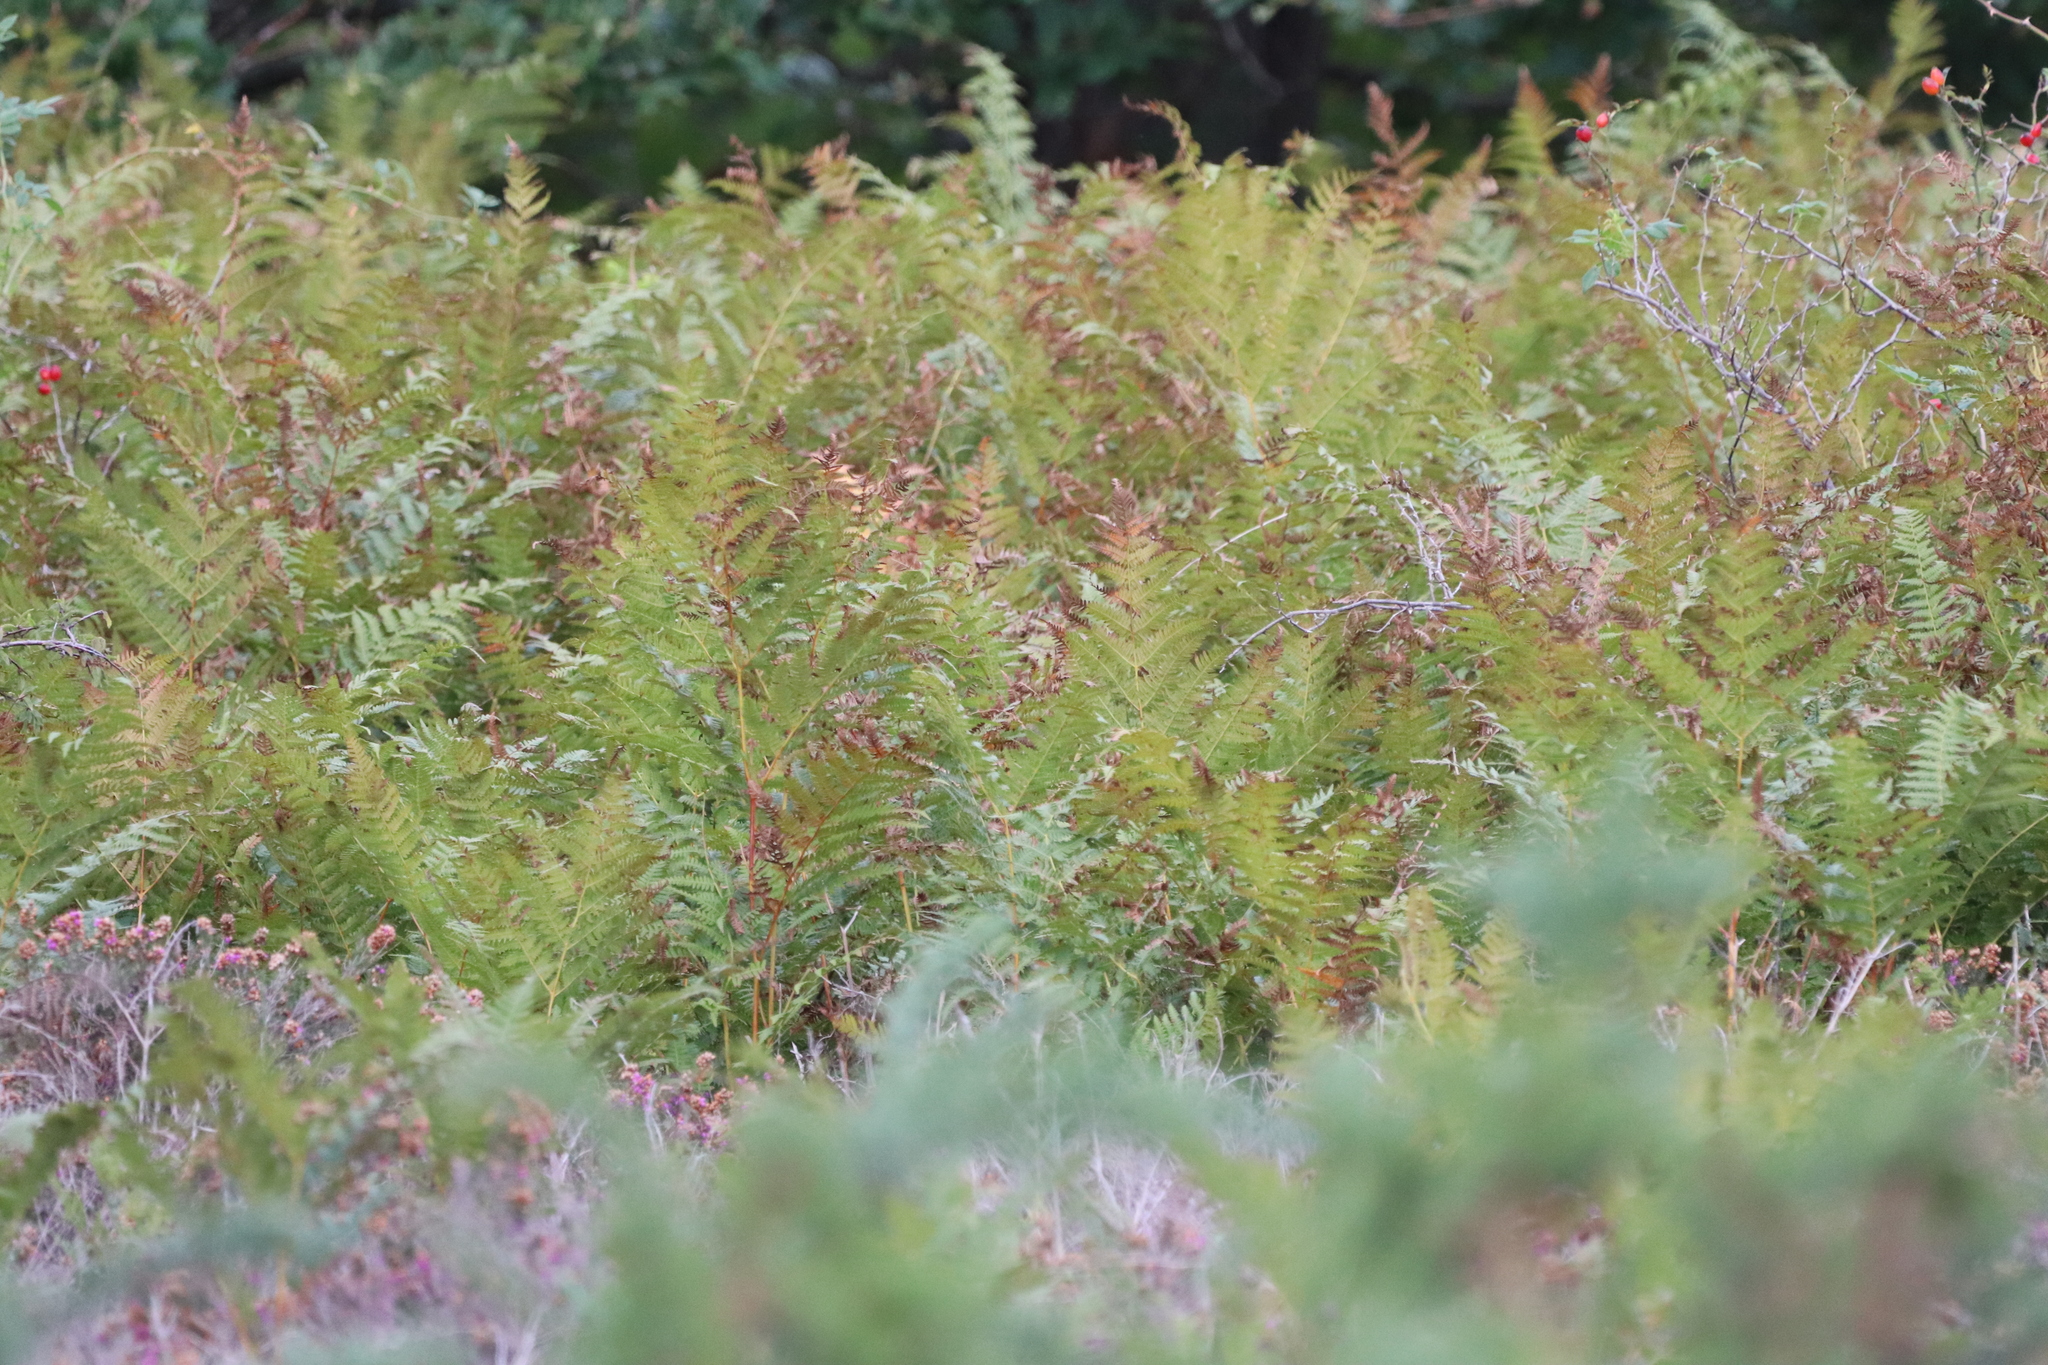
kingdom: Plantae
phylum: Tracheophyta
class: Polypodiopsida
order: Polypodiales
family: Dennstaedtiaceae
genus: Pteridium
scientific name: Pteridium aquilinum
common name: Bracken
